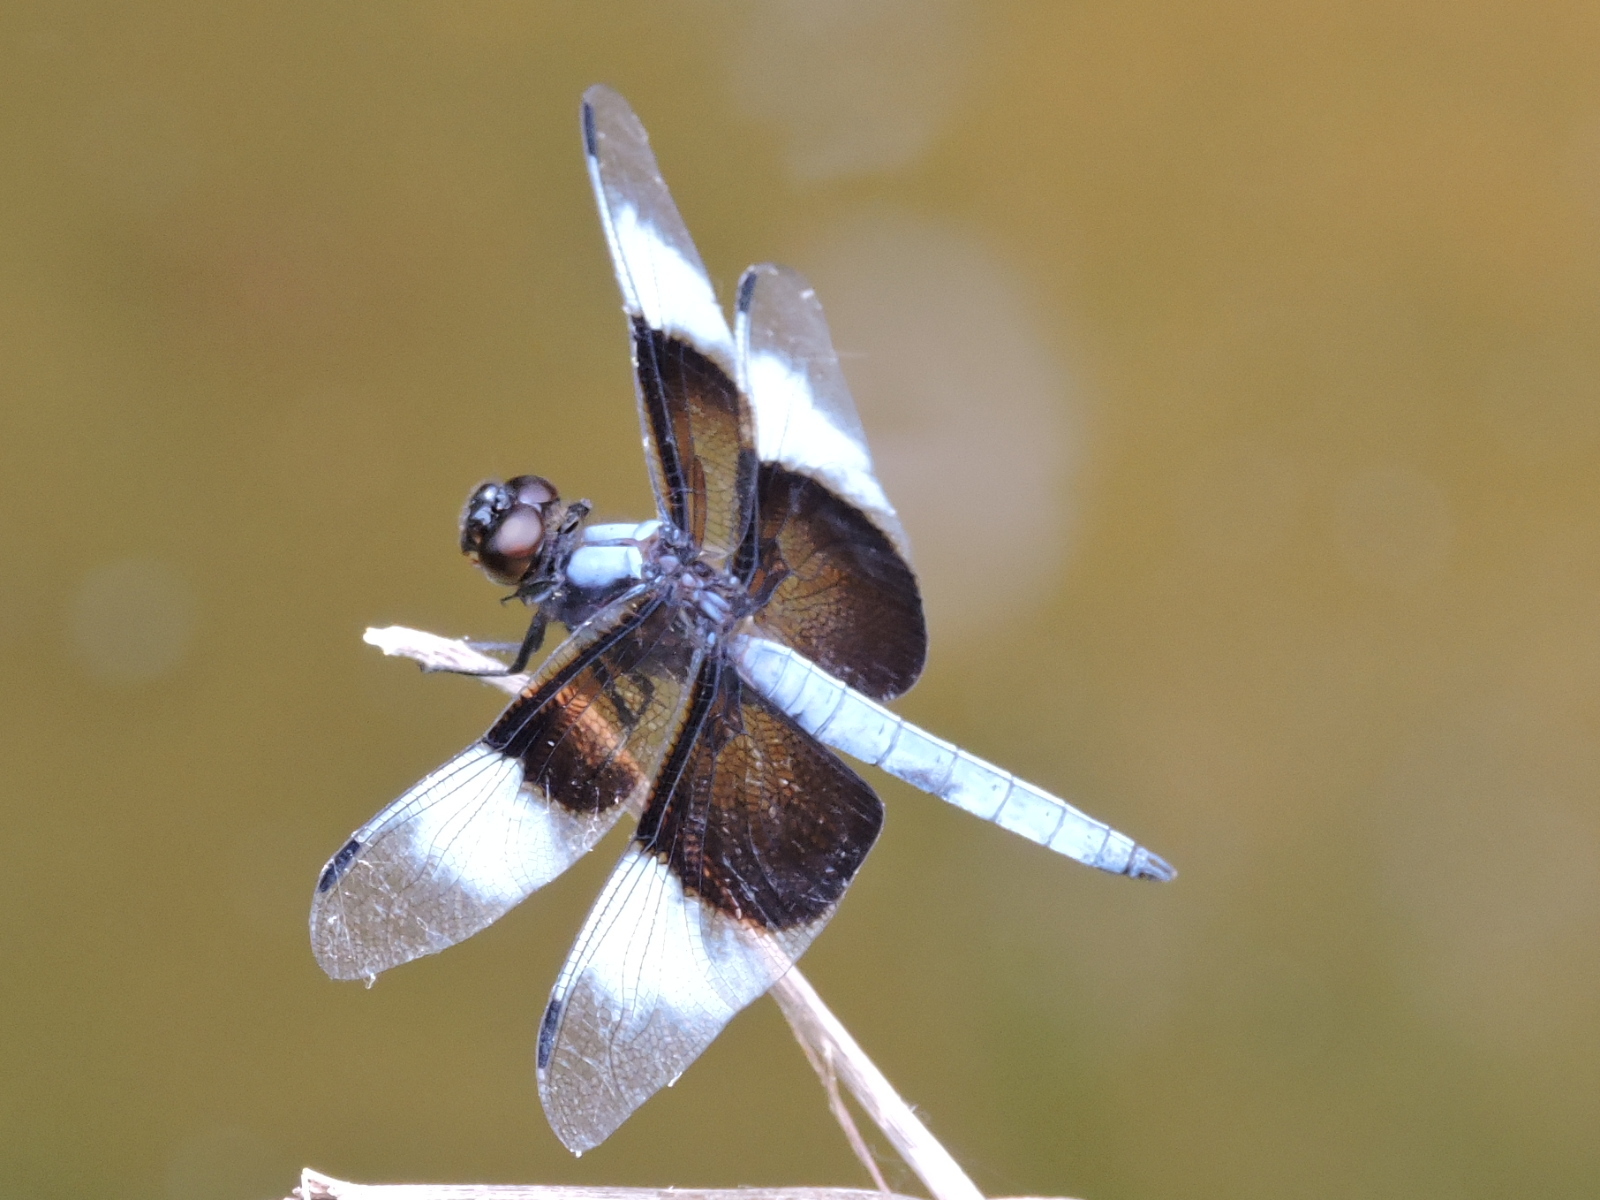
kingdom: Animalia
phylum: Arthropoda
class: Insecta
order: Odonata
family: Libellulidae
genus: Libellula
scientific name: Libellula luctuosa
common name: Widow skimmer
